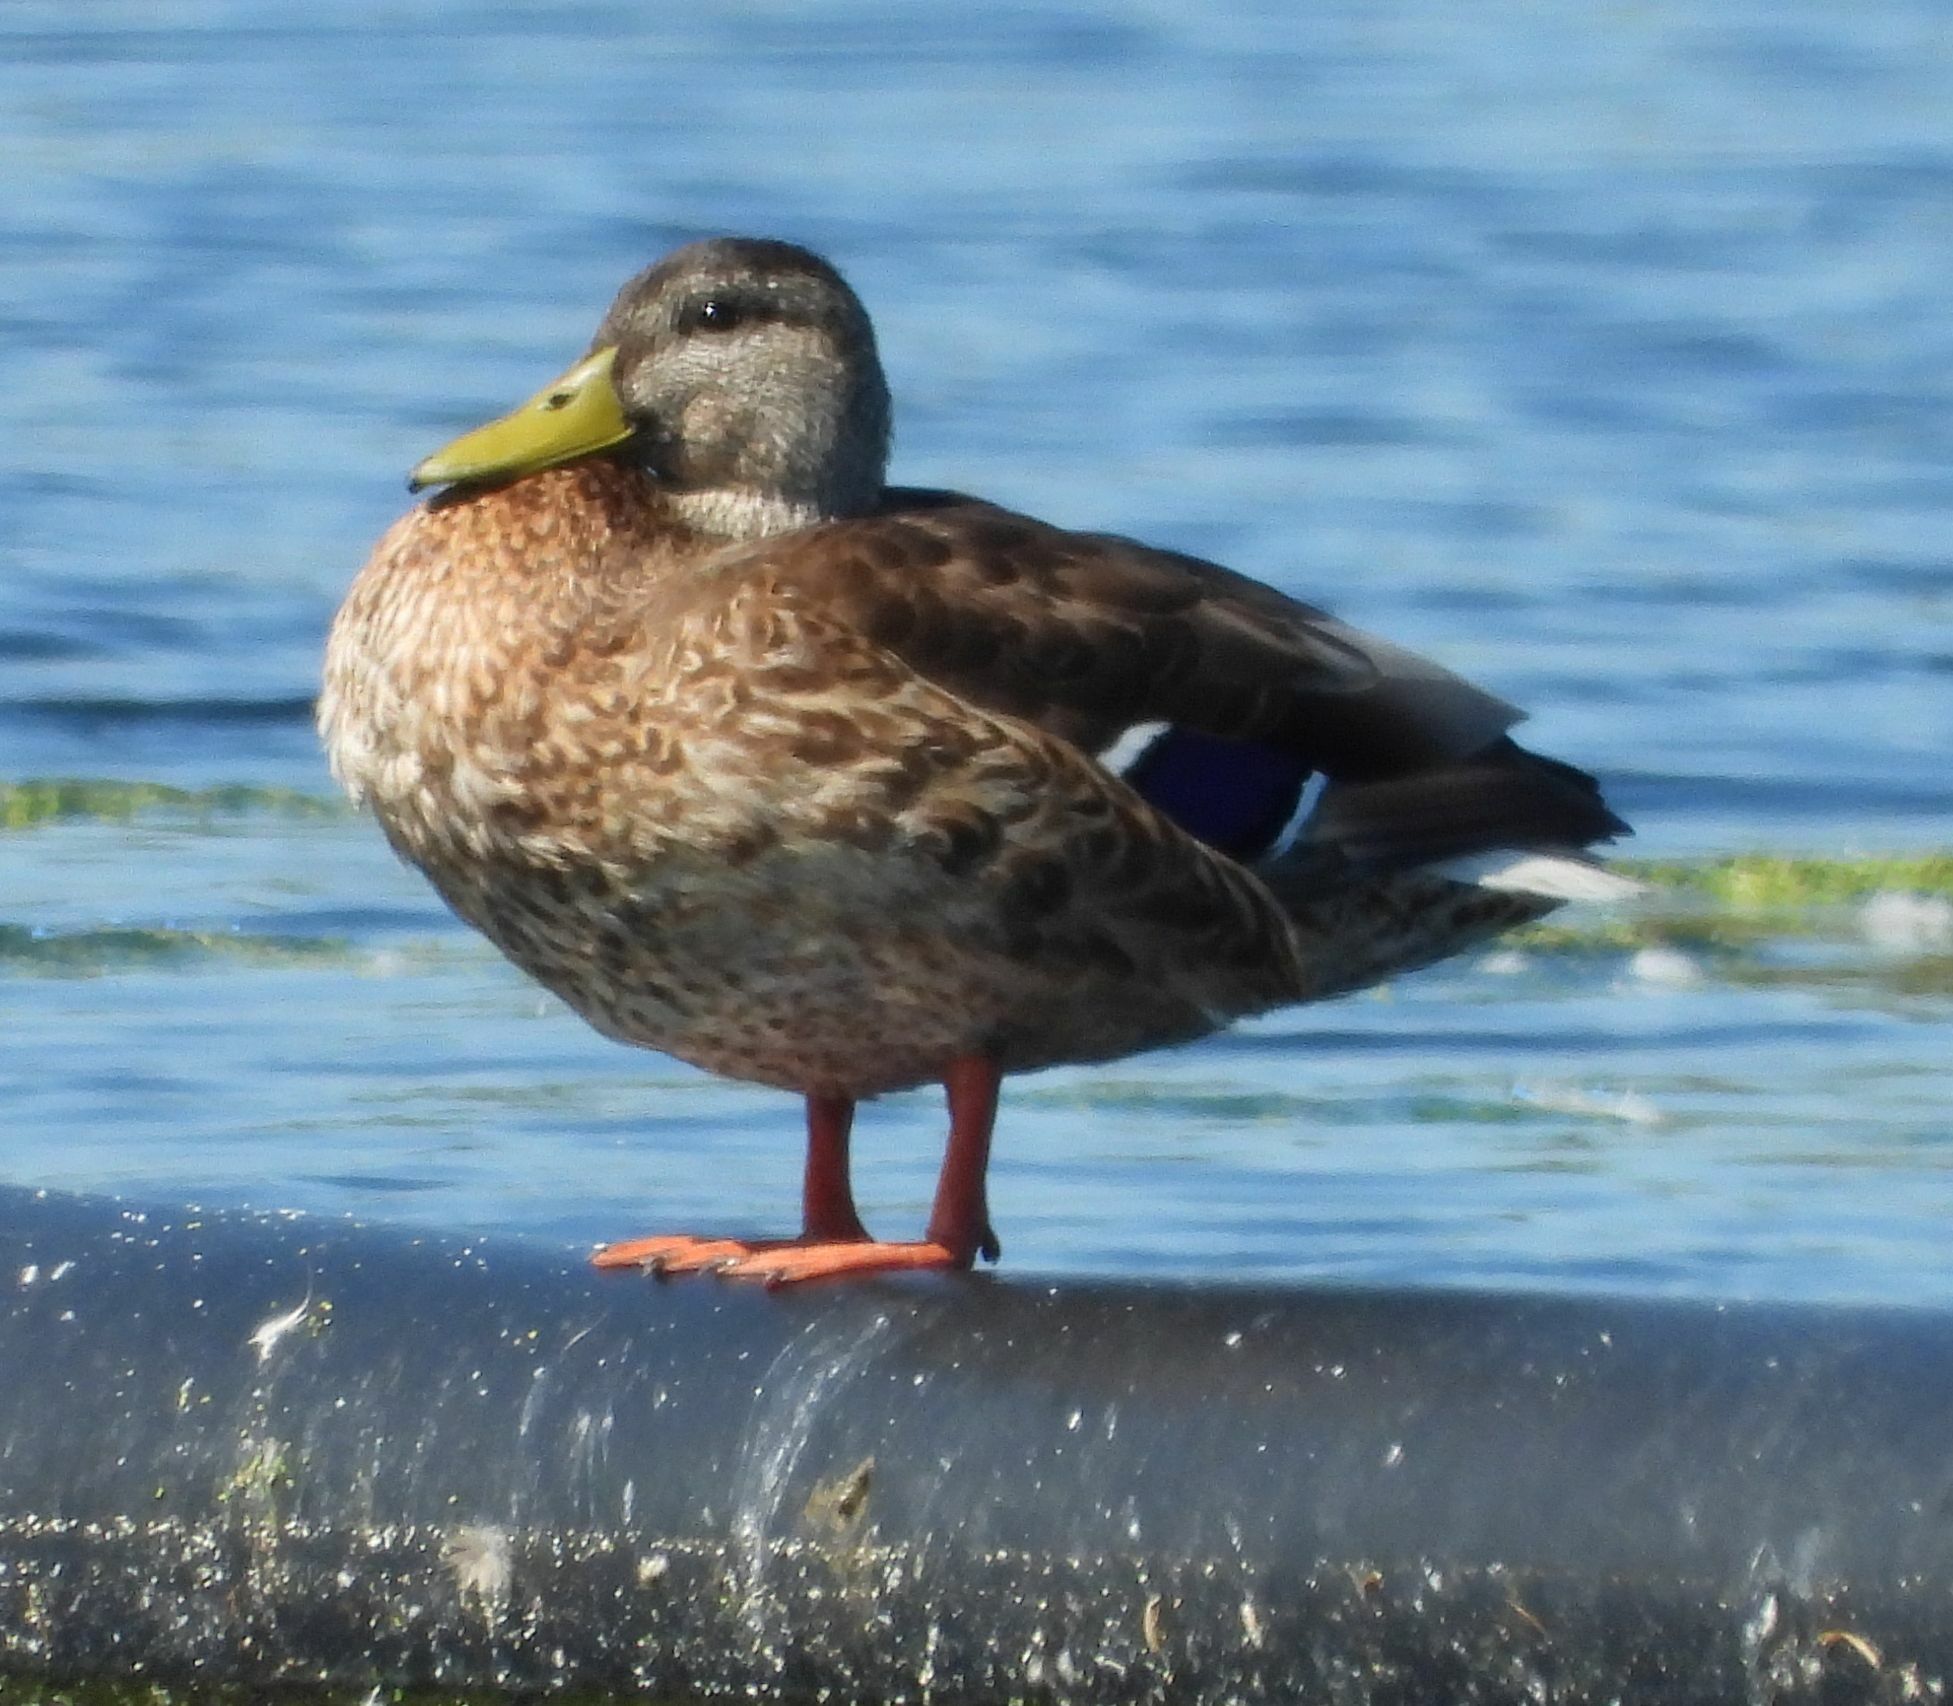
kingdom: Animalia
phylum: Chordata
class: Aves
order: Anseriformes
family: Anatidae
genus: Anas
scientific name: Anas platyrhynchos
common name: Mallard
